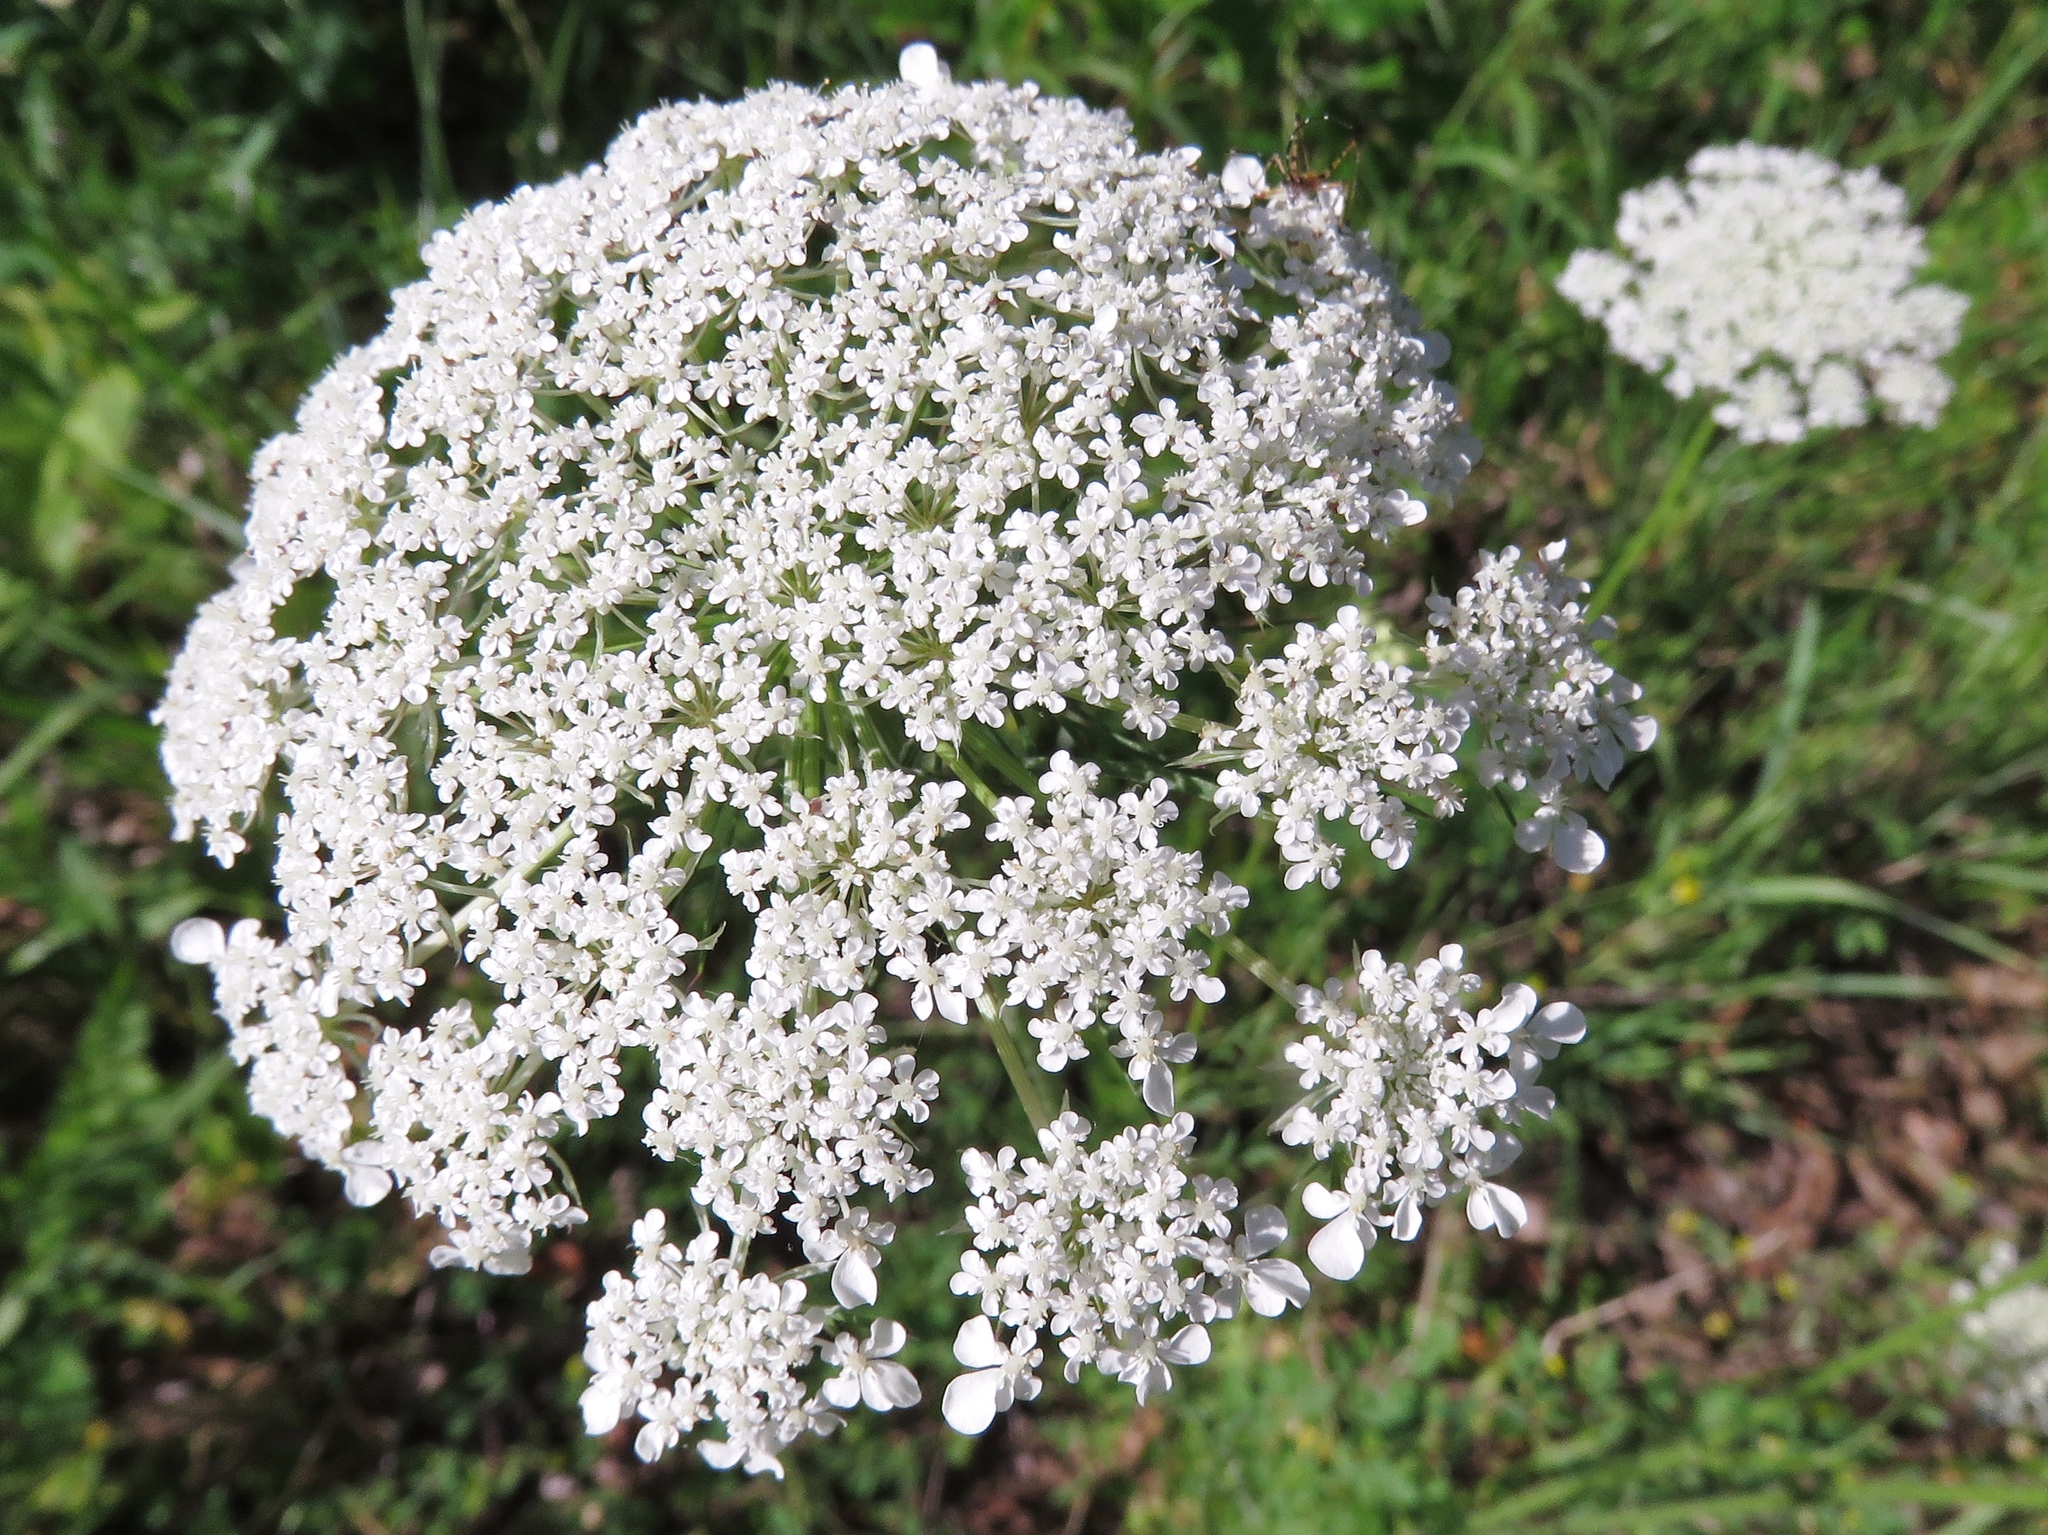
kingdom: Plantae
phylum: Tracheophyta
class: Magnoliopsida
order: Apiales
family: Apiaceae
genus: Daucus
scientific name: Daucus carota
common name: Wild carrot
